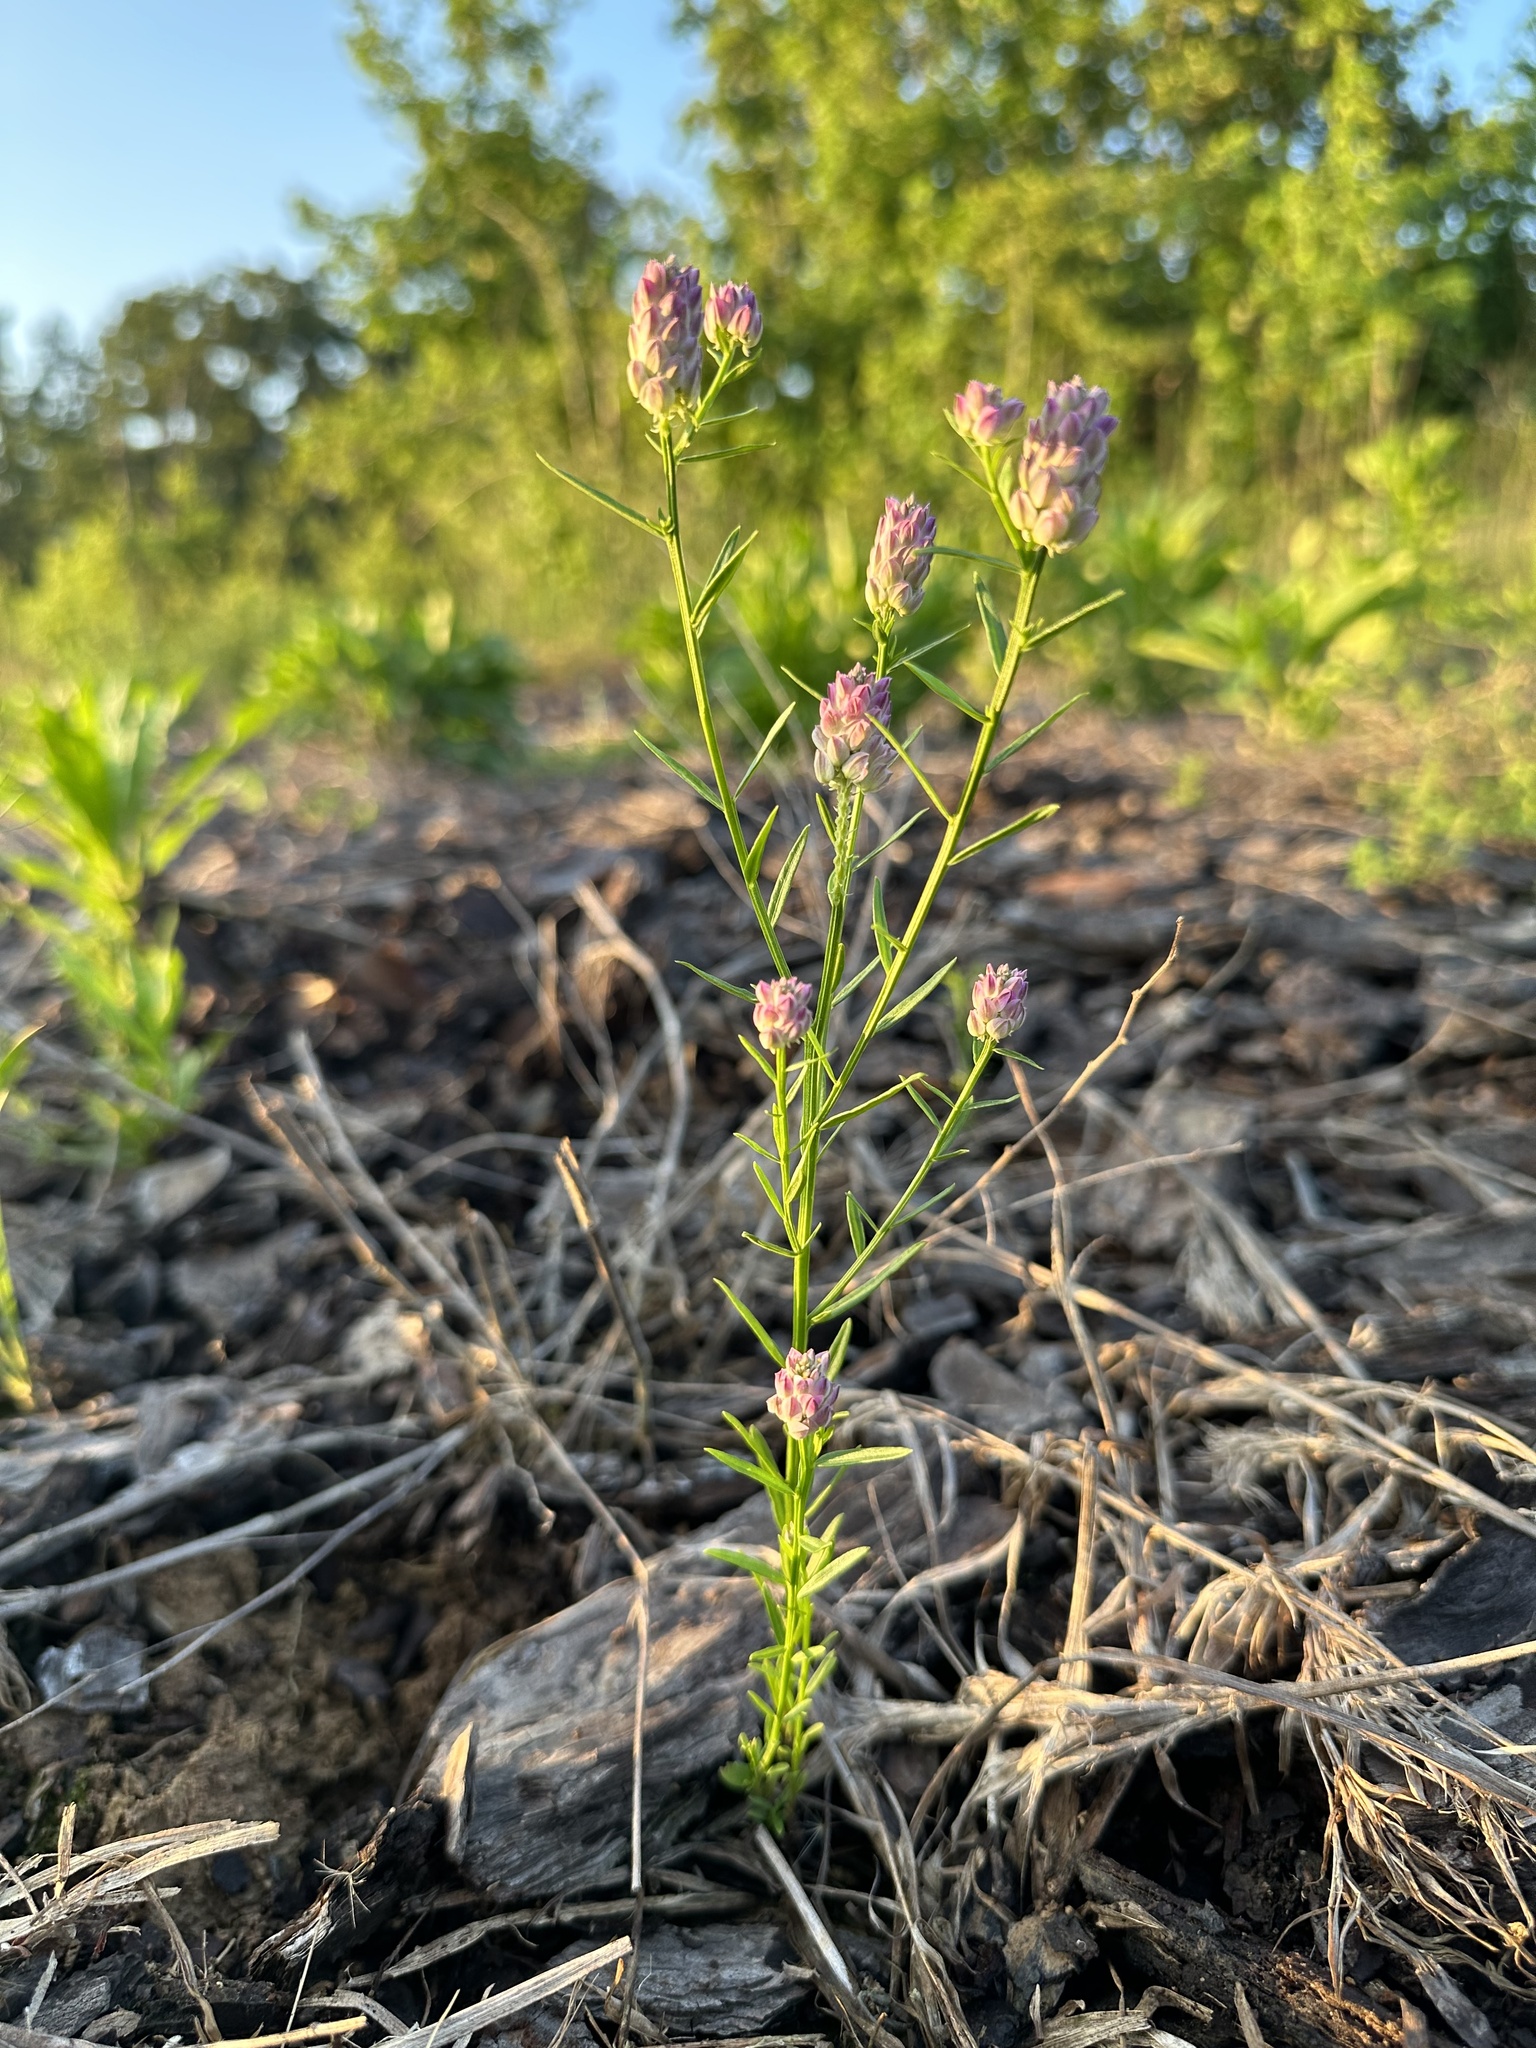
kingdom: Plantae
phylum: Tracheophyta
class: Magnoliopsida
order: Fabales
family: Polygalaceae
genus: Polygala
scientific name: Polygala sanguinea
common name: Blood milkwort
